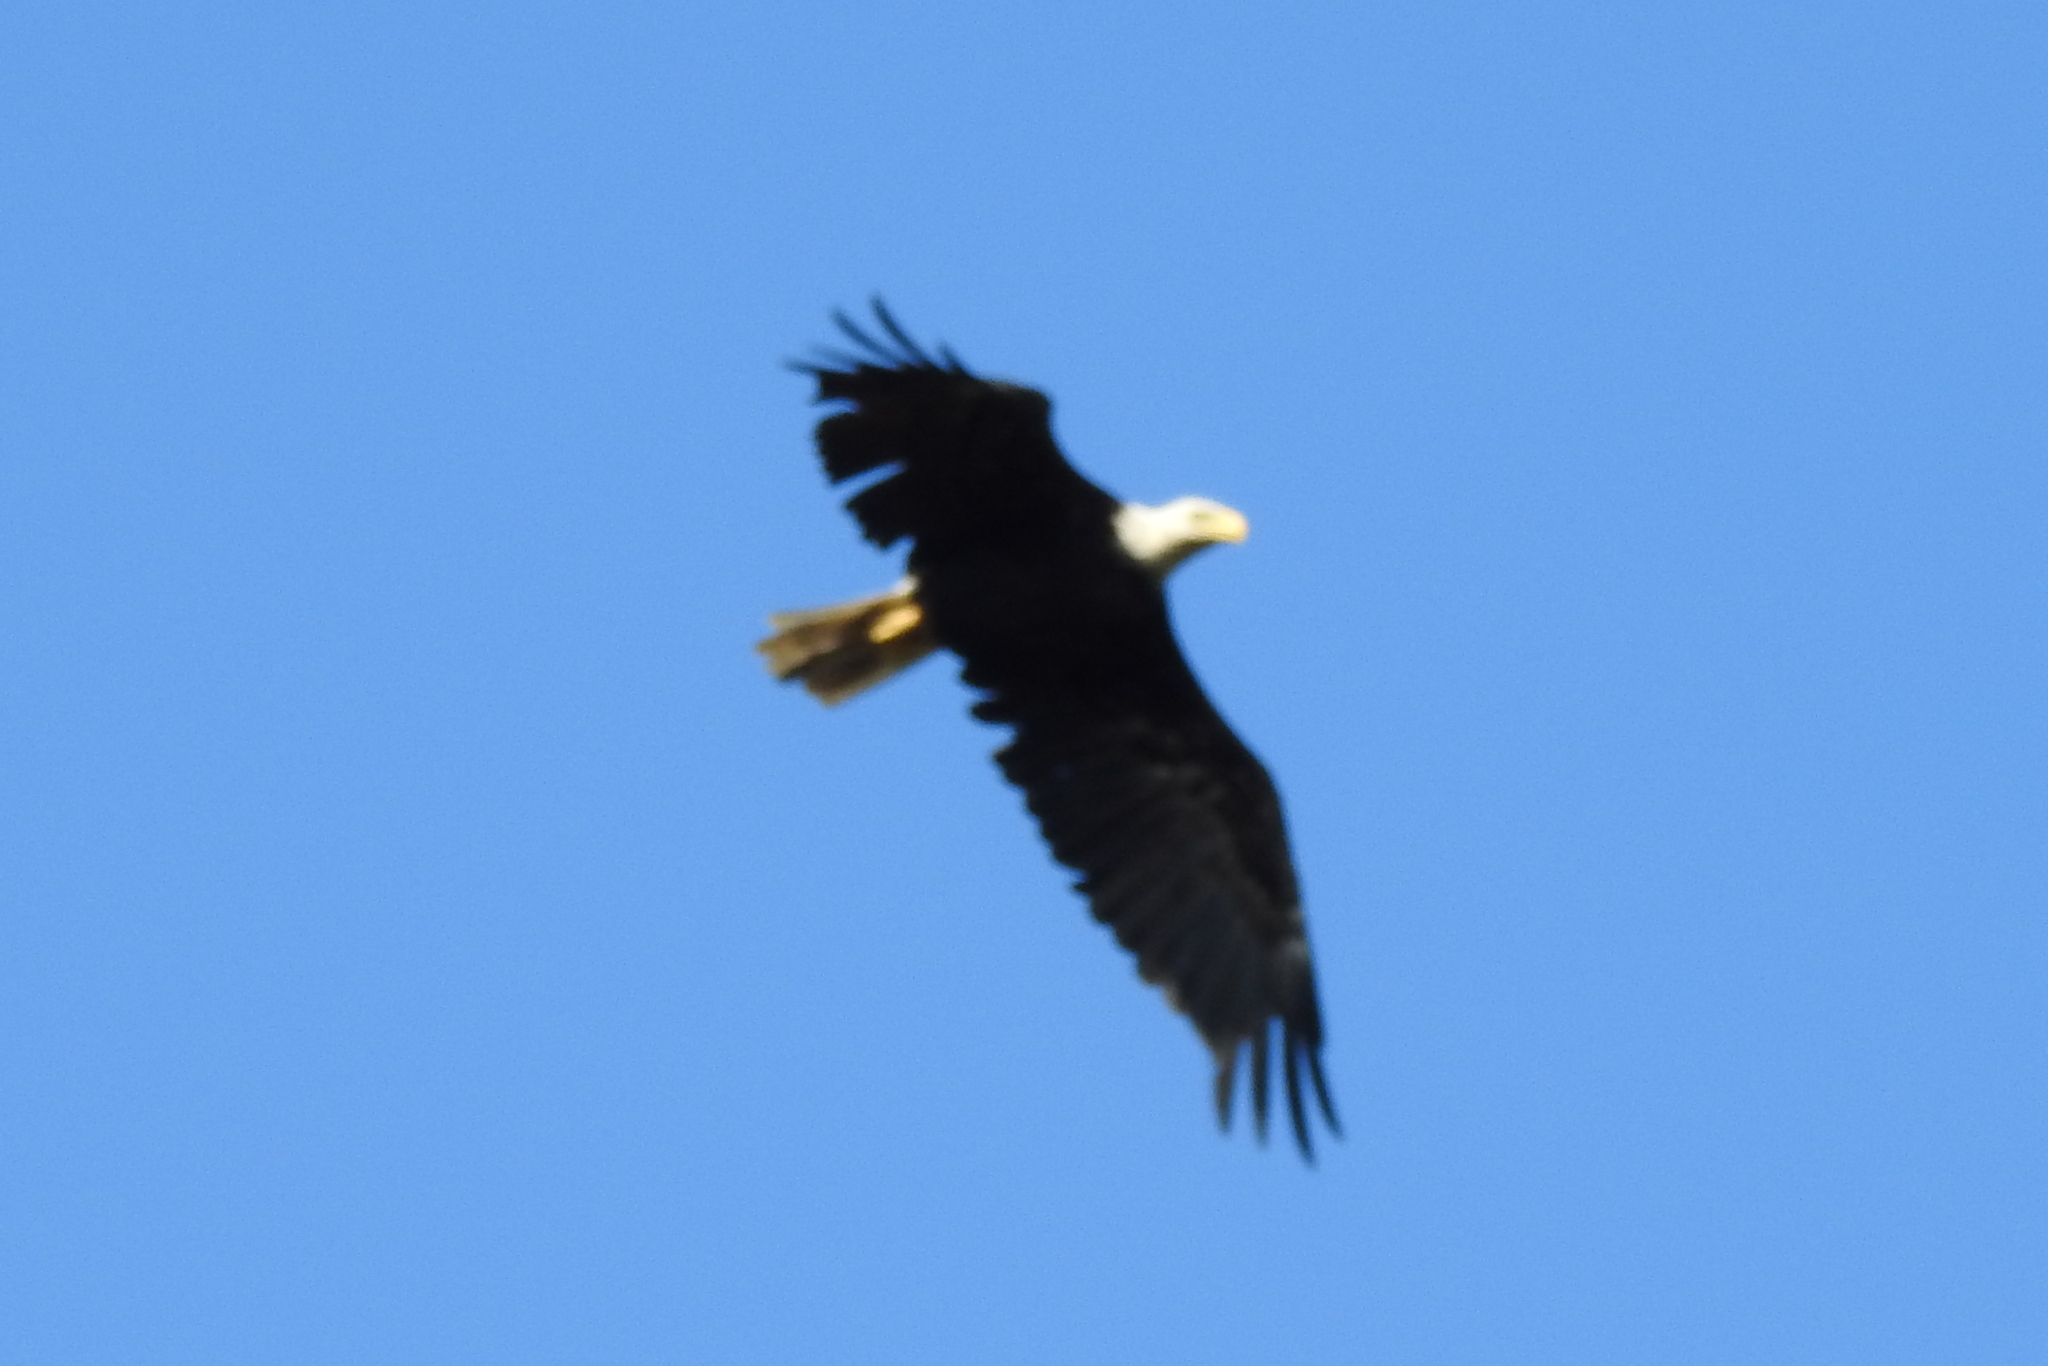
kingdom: Animalia
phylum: Chordata
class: Aves
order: Accipitriformes
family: Accipitridae
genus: Haliaeetus
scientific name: Haliaeetus leucocephalus
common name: Bald eagle
